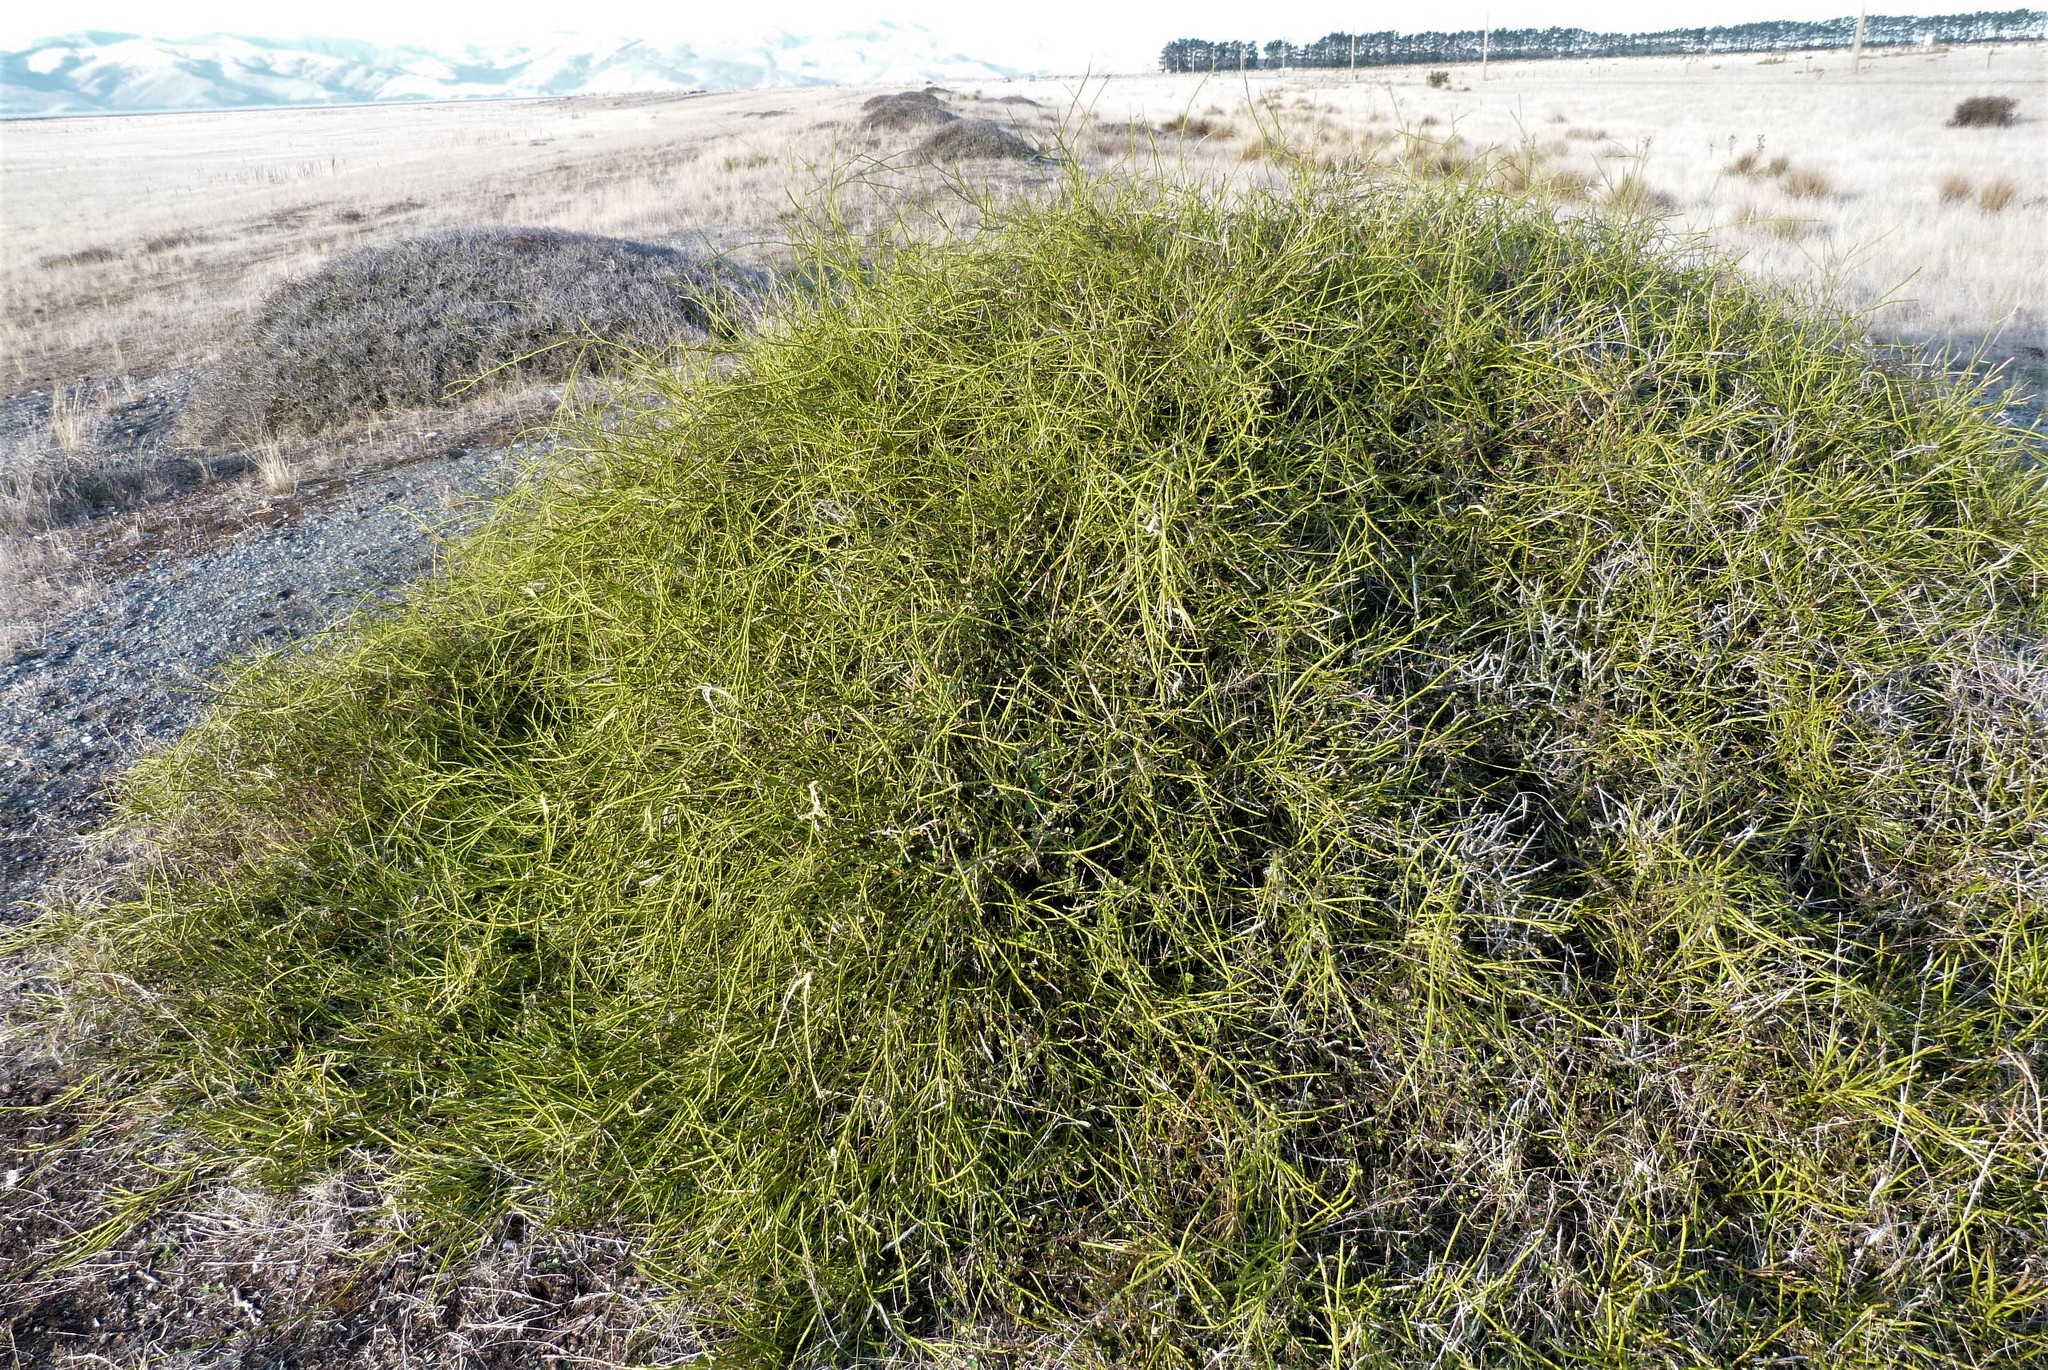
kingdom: Plantae
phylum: Tracheophyta
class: Magnoliopsida
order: Fabales
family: Fabaceae
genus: Carmichaelia
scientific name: Carmichaelia appressa
